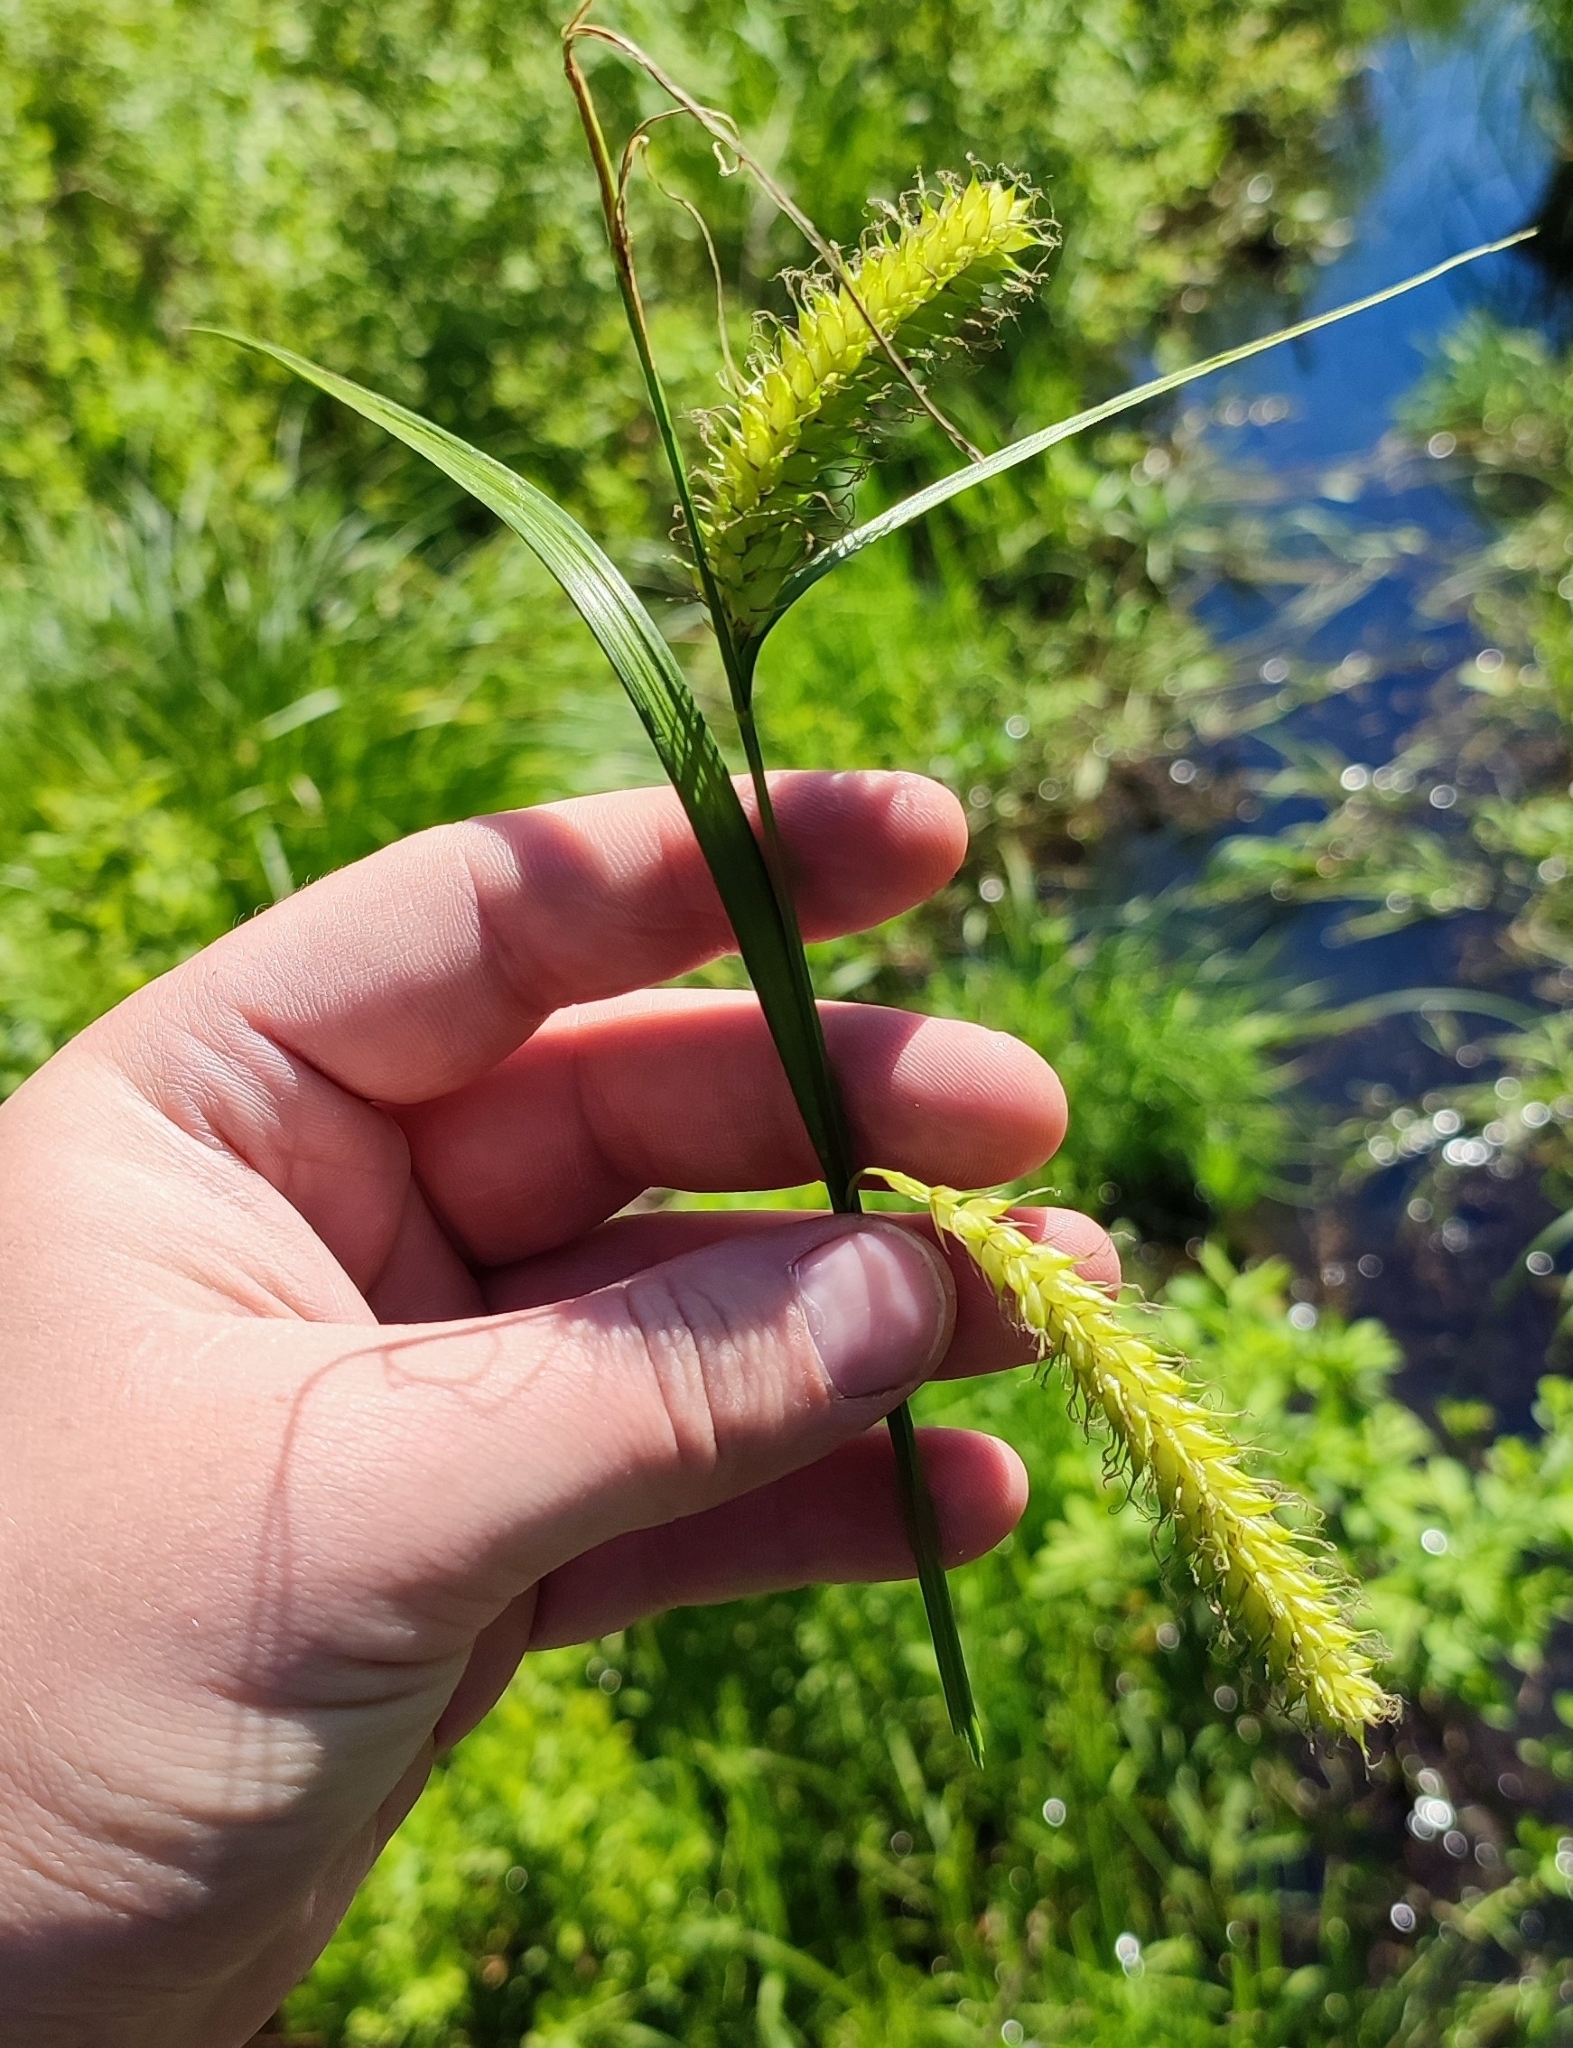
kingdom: Plantae
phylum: Tracheophyta
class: Liliopsida
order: Poales
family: Cyperaceae
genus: Carex
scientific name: Carex vesicaria
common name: Bladder-sedge
